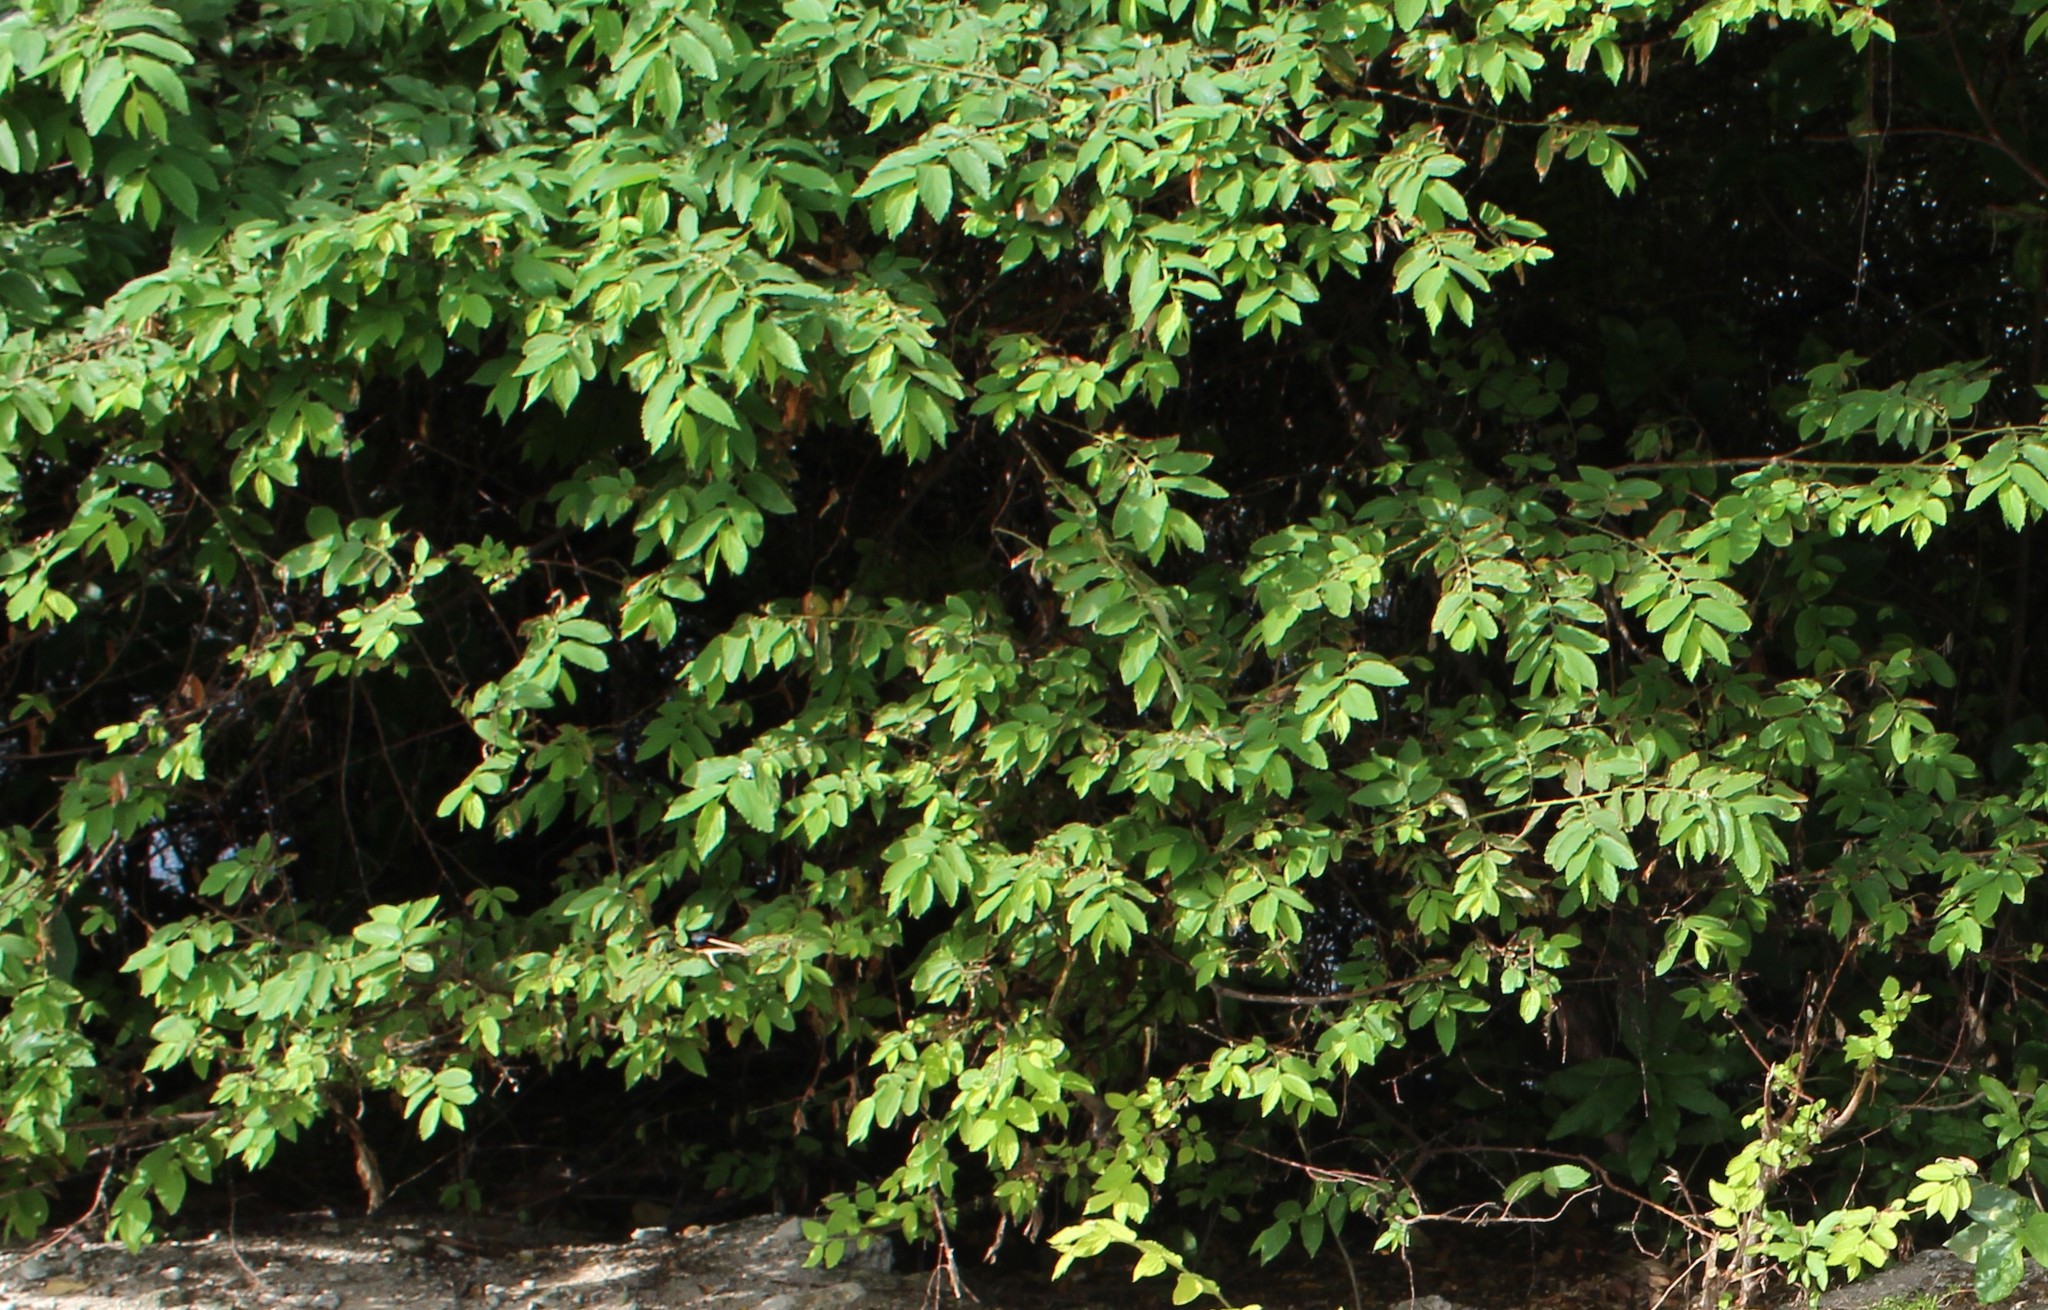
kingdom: Plantae
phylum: Tracheophyta
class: Magnoliopsida
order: Malvales
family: Muntingiaceae
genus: Muntingia
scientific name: Muntingia calabura
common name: Strawberrytree
